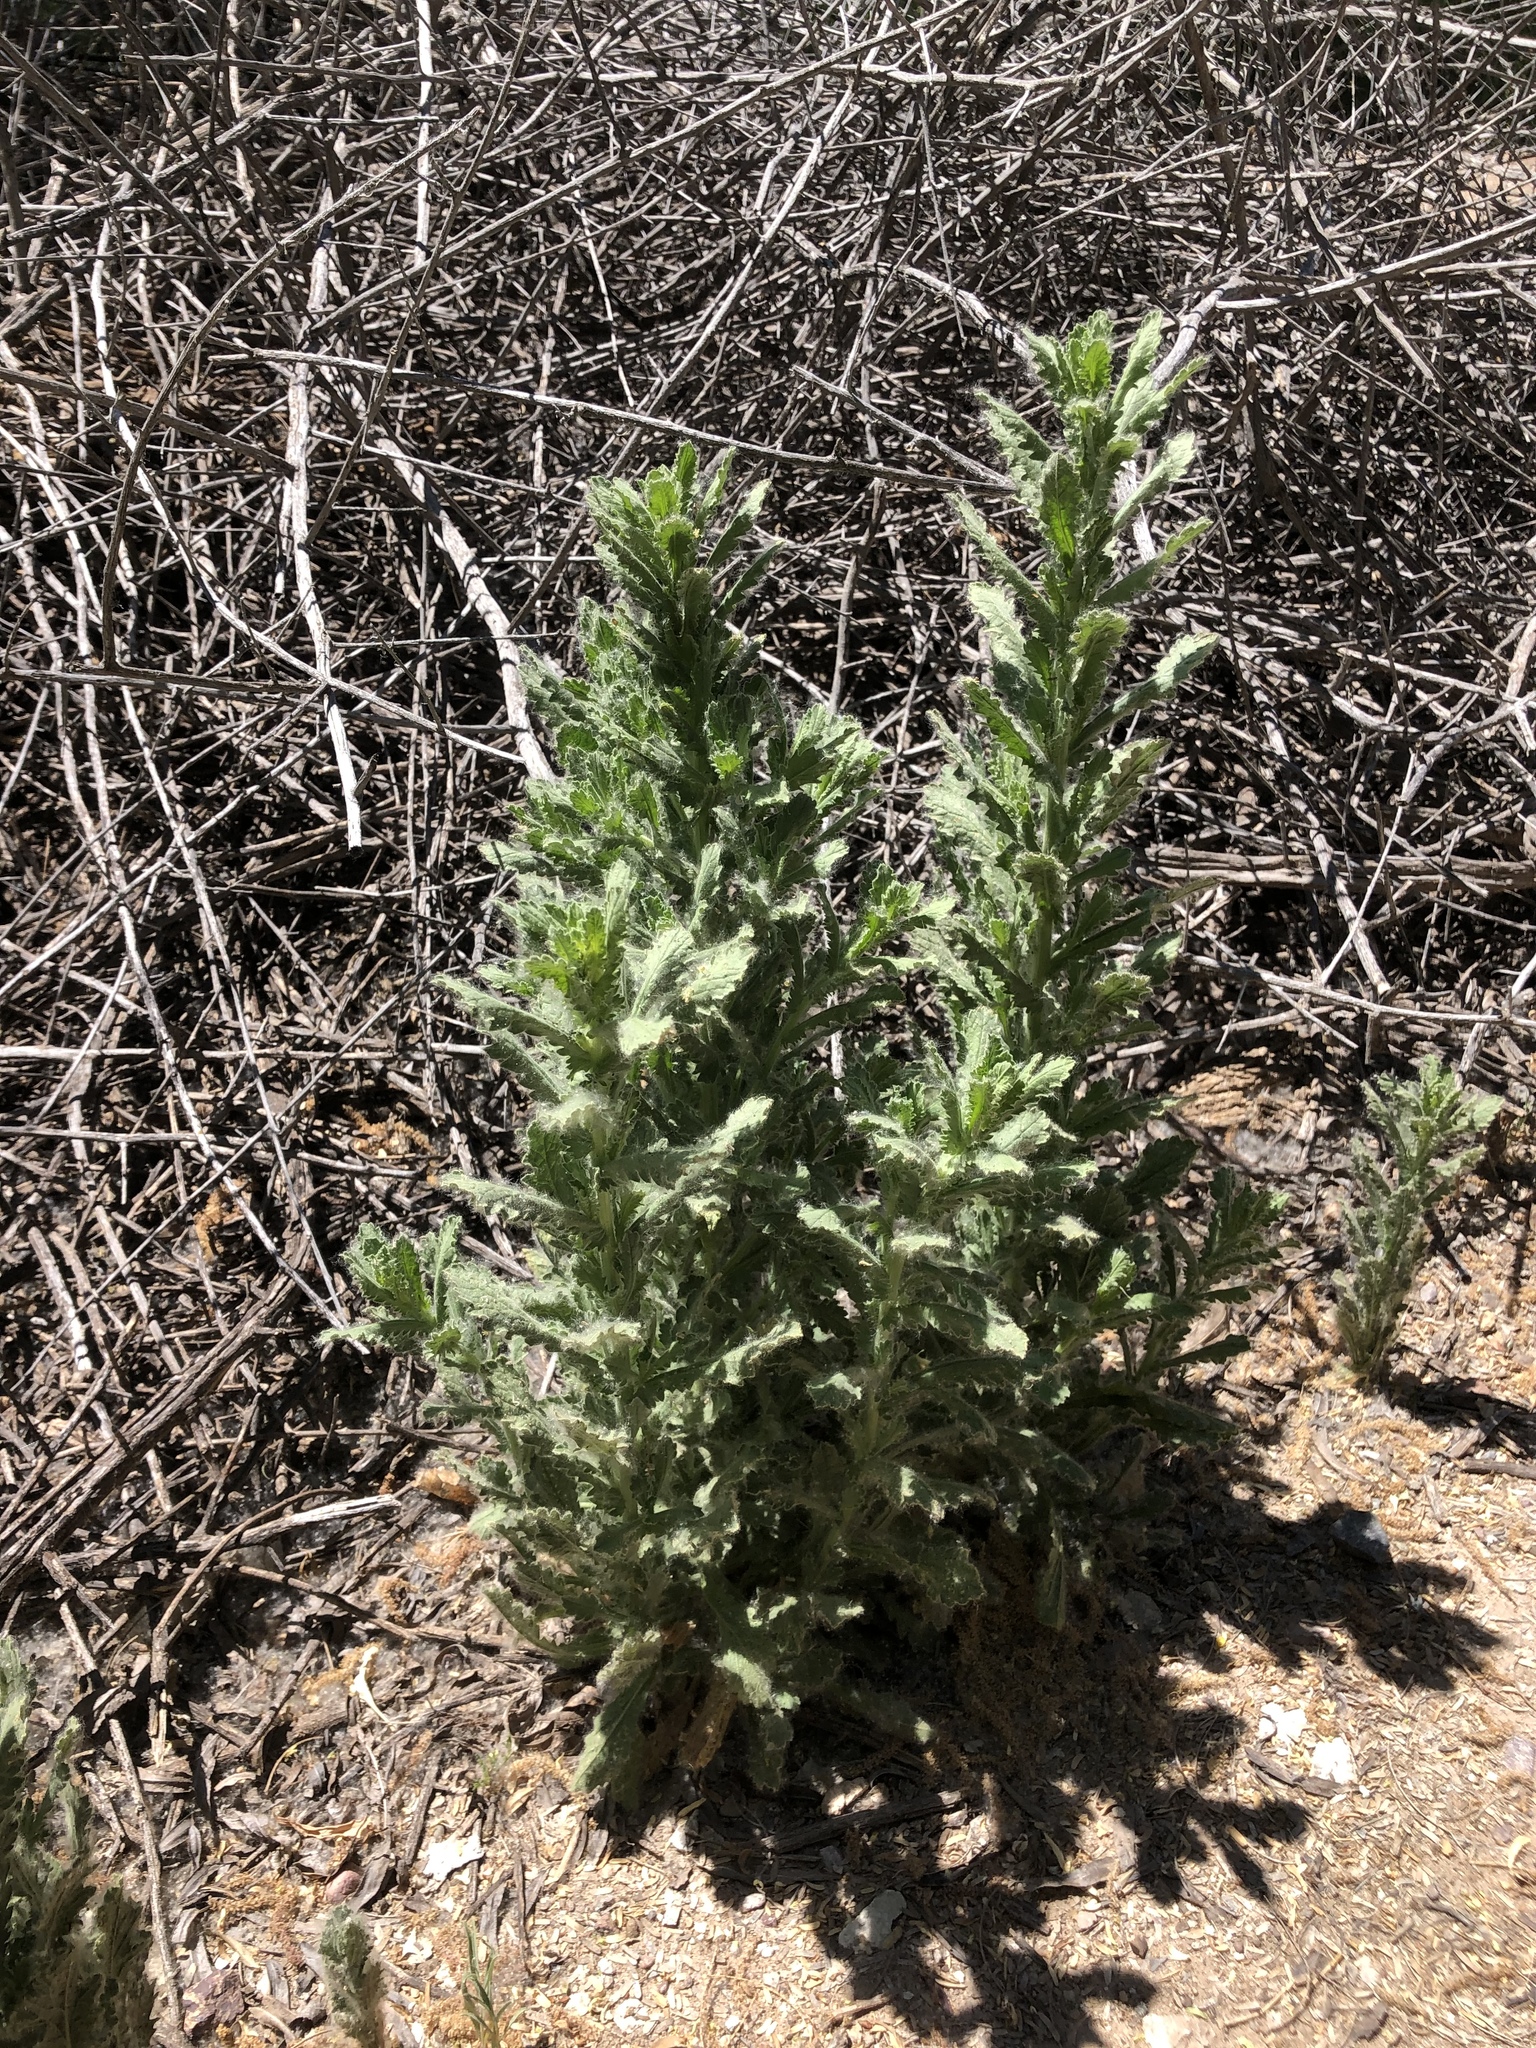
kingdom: Plantae
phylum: Tracheophyta
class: Magnoliopsida
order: Asterales
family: Asteraceae
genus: Laennecia
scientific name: Laennecia coulteri
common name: Coulter's woolwort
